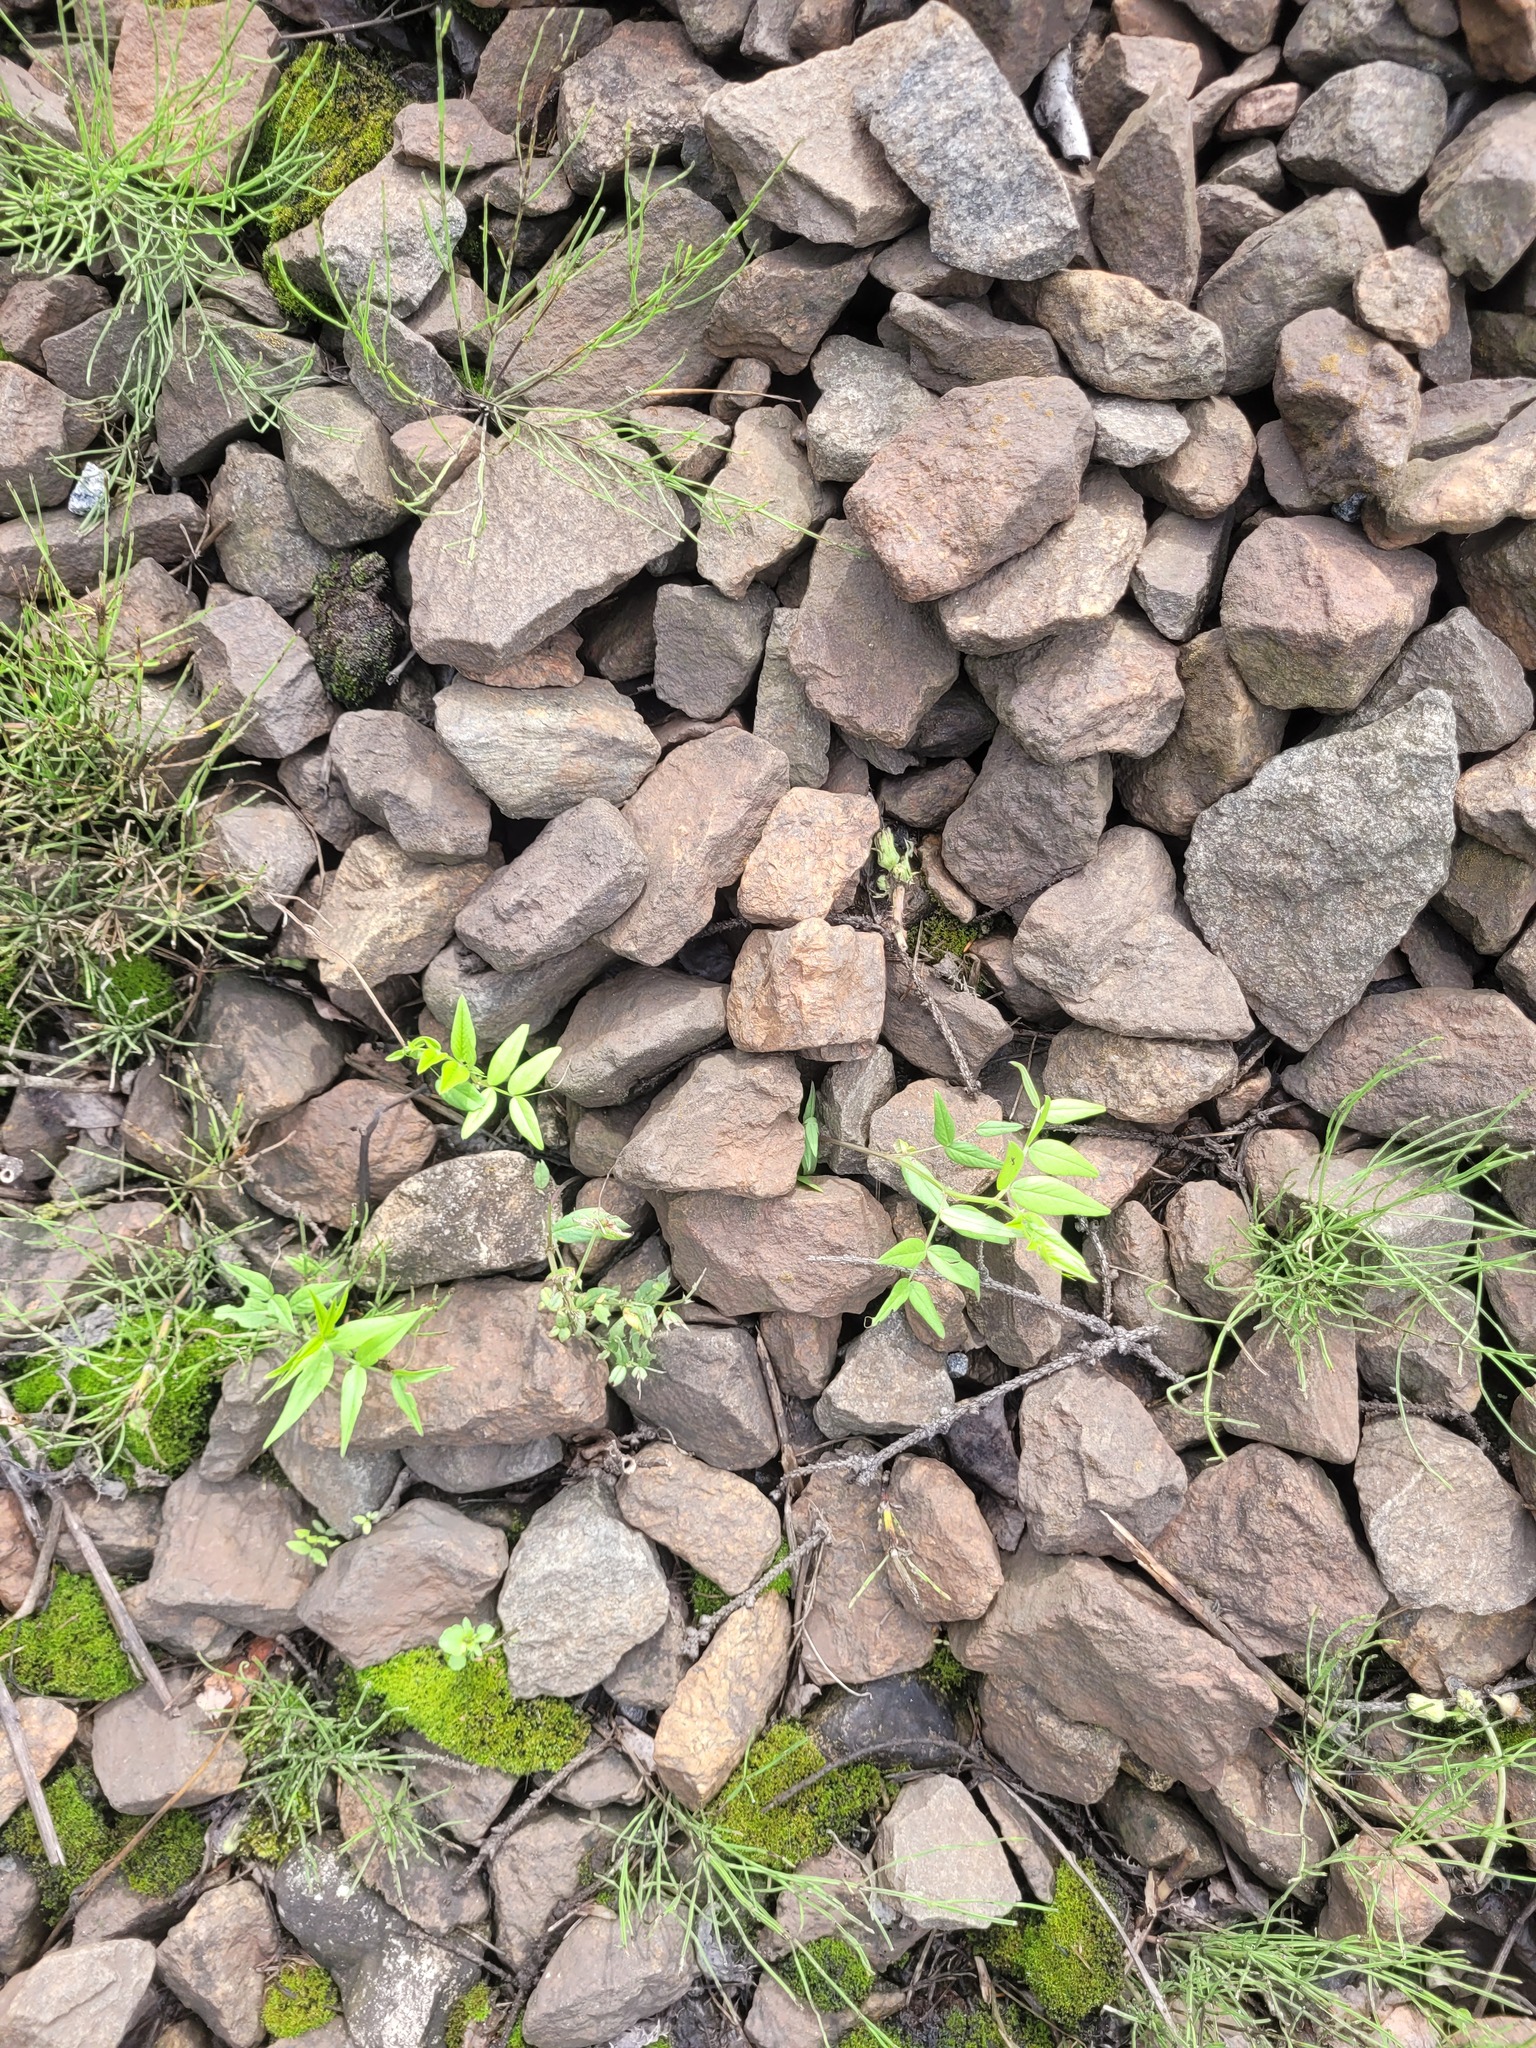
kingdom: Plantae
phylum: Tracheophyta
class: Magnoliopsida
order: Fabales
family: Fabaceae
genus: Vicia
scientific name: Vicia sepium
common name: Bush vetch
